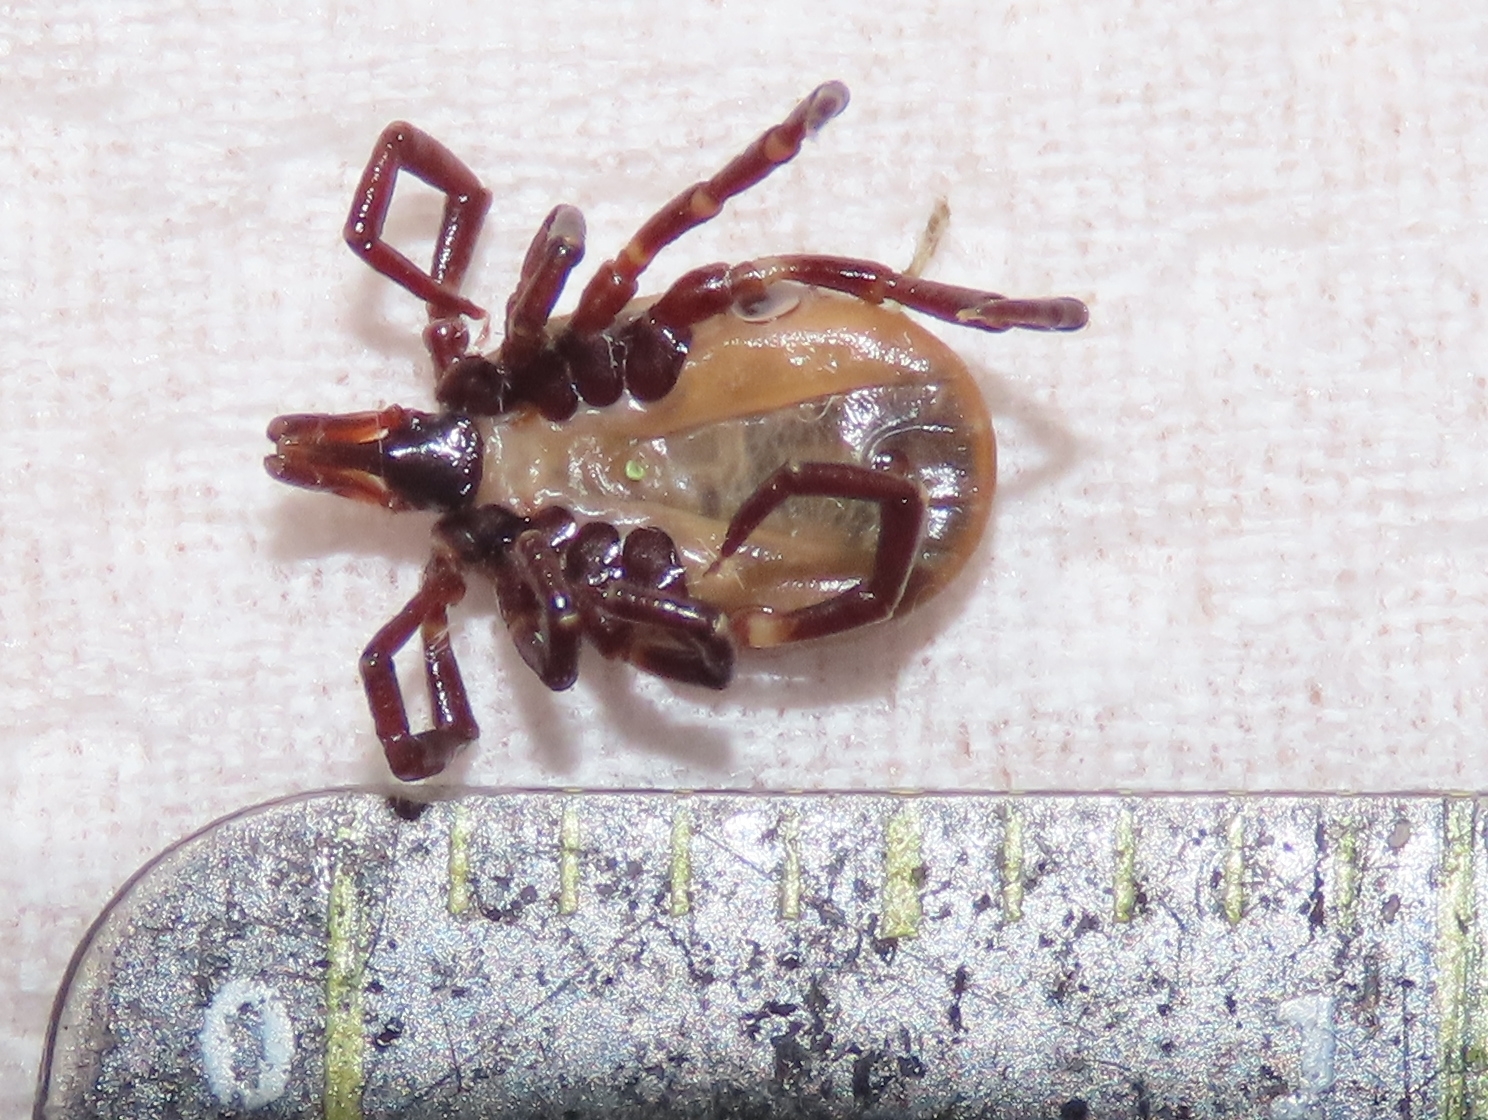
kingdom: Animalia
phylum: Arthropoda
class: Arachnida
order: Ixodida
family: Ixodidae
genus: Ixodes
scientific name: Ixodes acutitarsus
